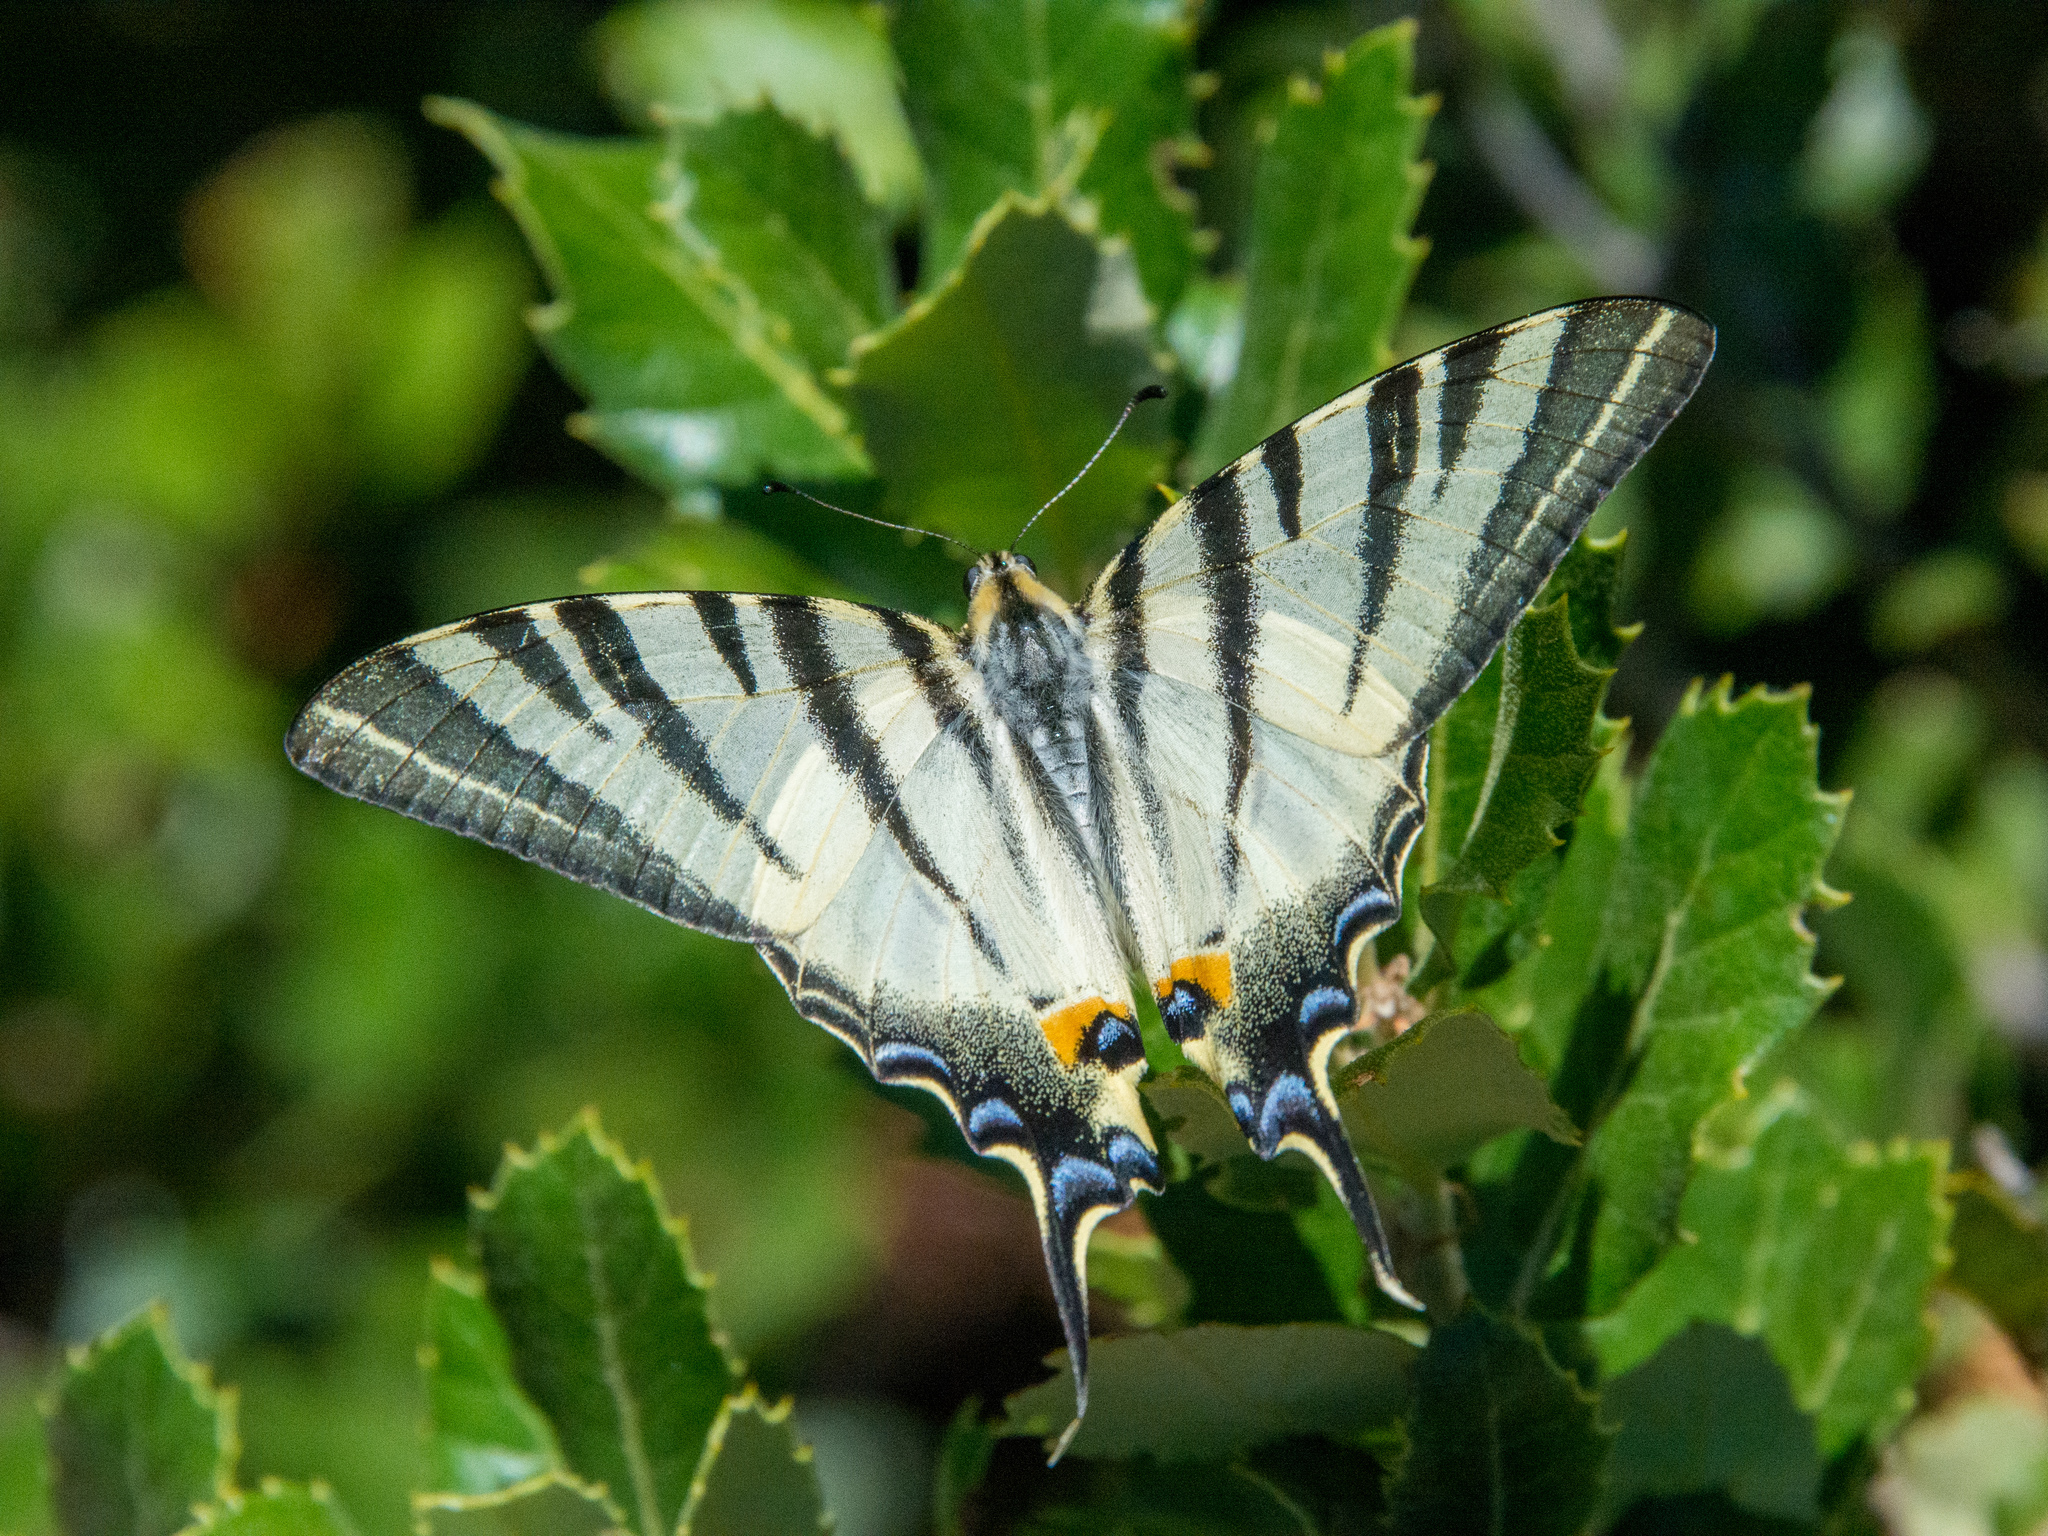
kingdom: Animalia
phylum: Arthropoda
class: Insecta
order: Lepidoptera
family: Papilionidae
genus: Iphiclides
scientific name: Iphiclides podalirius
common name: Scarce swallowtail
